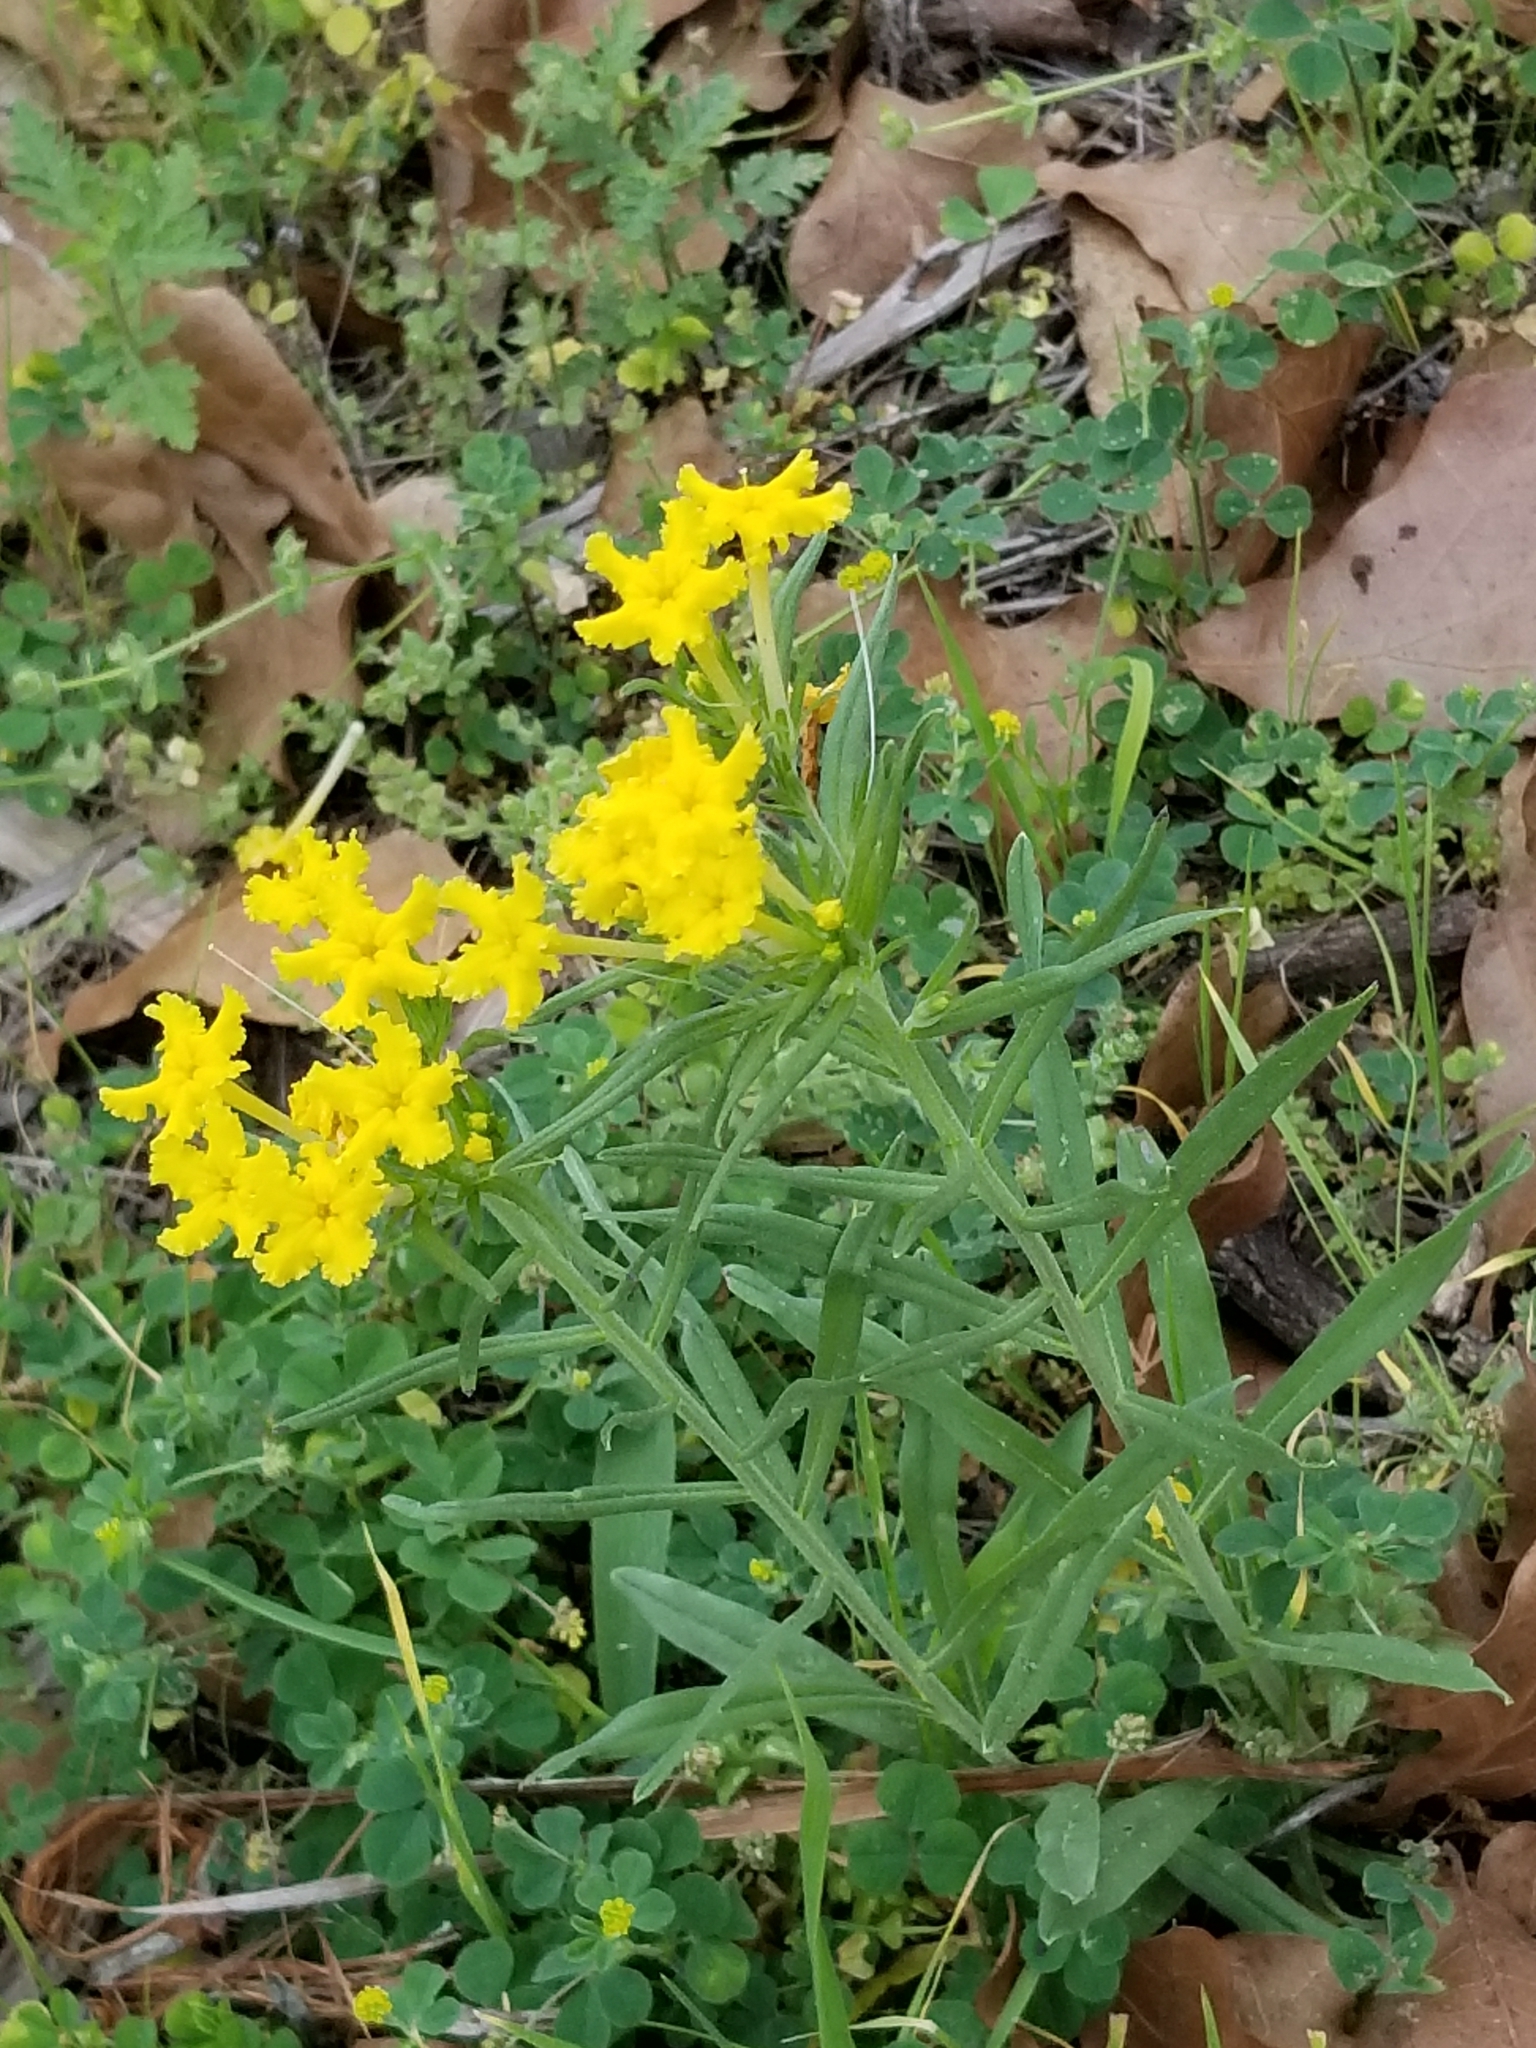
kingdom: Plantae
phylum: Tracheophyta
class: Magnoliopsida
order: Boraginales
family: Boraginaceae
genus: Lithospermum
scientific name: Lithospermum incisum
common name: Fringed gromwell
